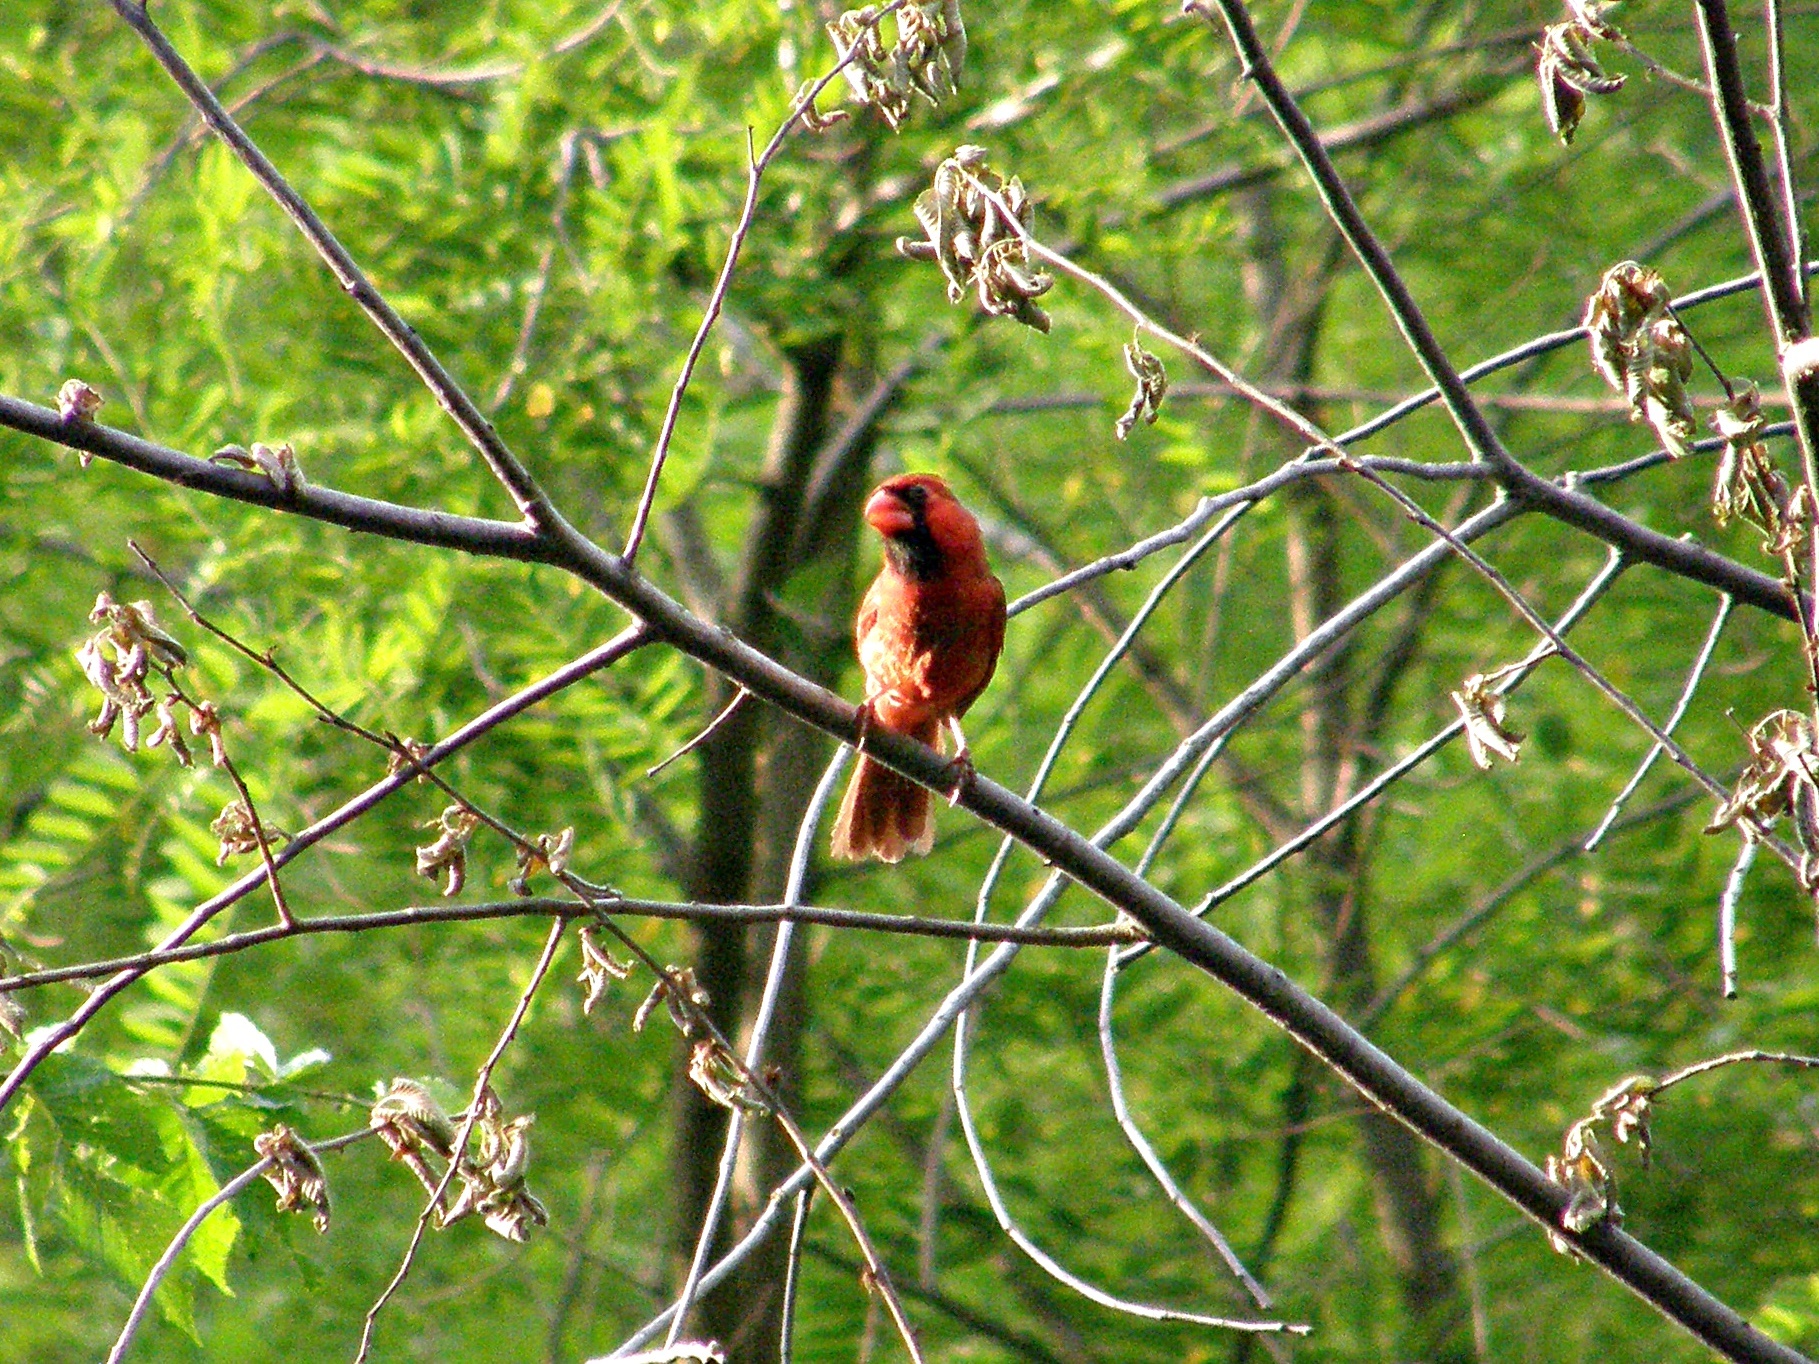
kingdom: Animalia
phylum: Chordata
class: Aves
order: Passeriformes
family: Cardinalidae
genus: Cardinalis
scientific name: Cardinalis cardinalis
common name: Northern cardinal
